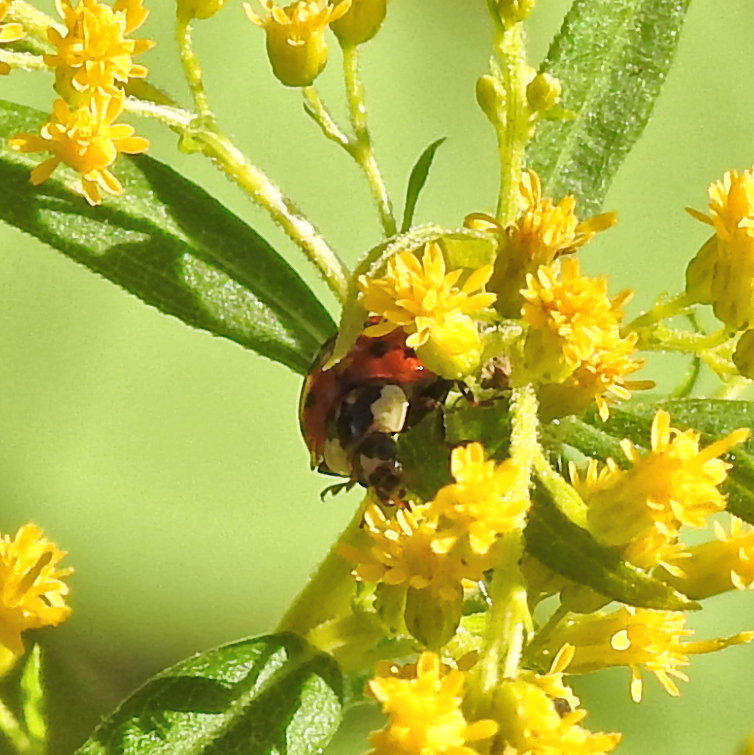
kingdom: Animalia
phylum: Arthropoda
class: Insecta
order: Coleoptera
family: Coccinellidae
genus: Harmonia
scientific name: Harmonia axyridis
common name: Harlequin ladybird
